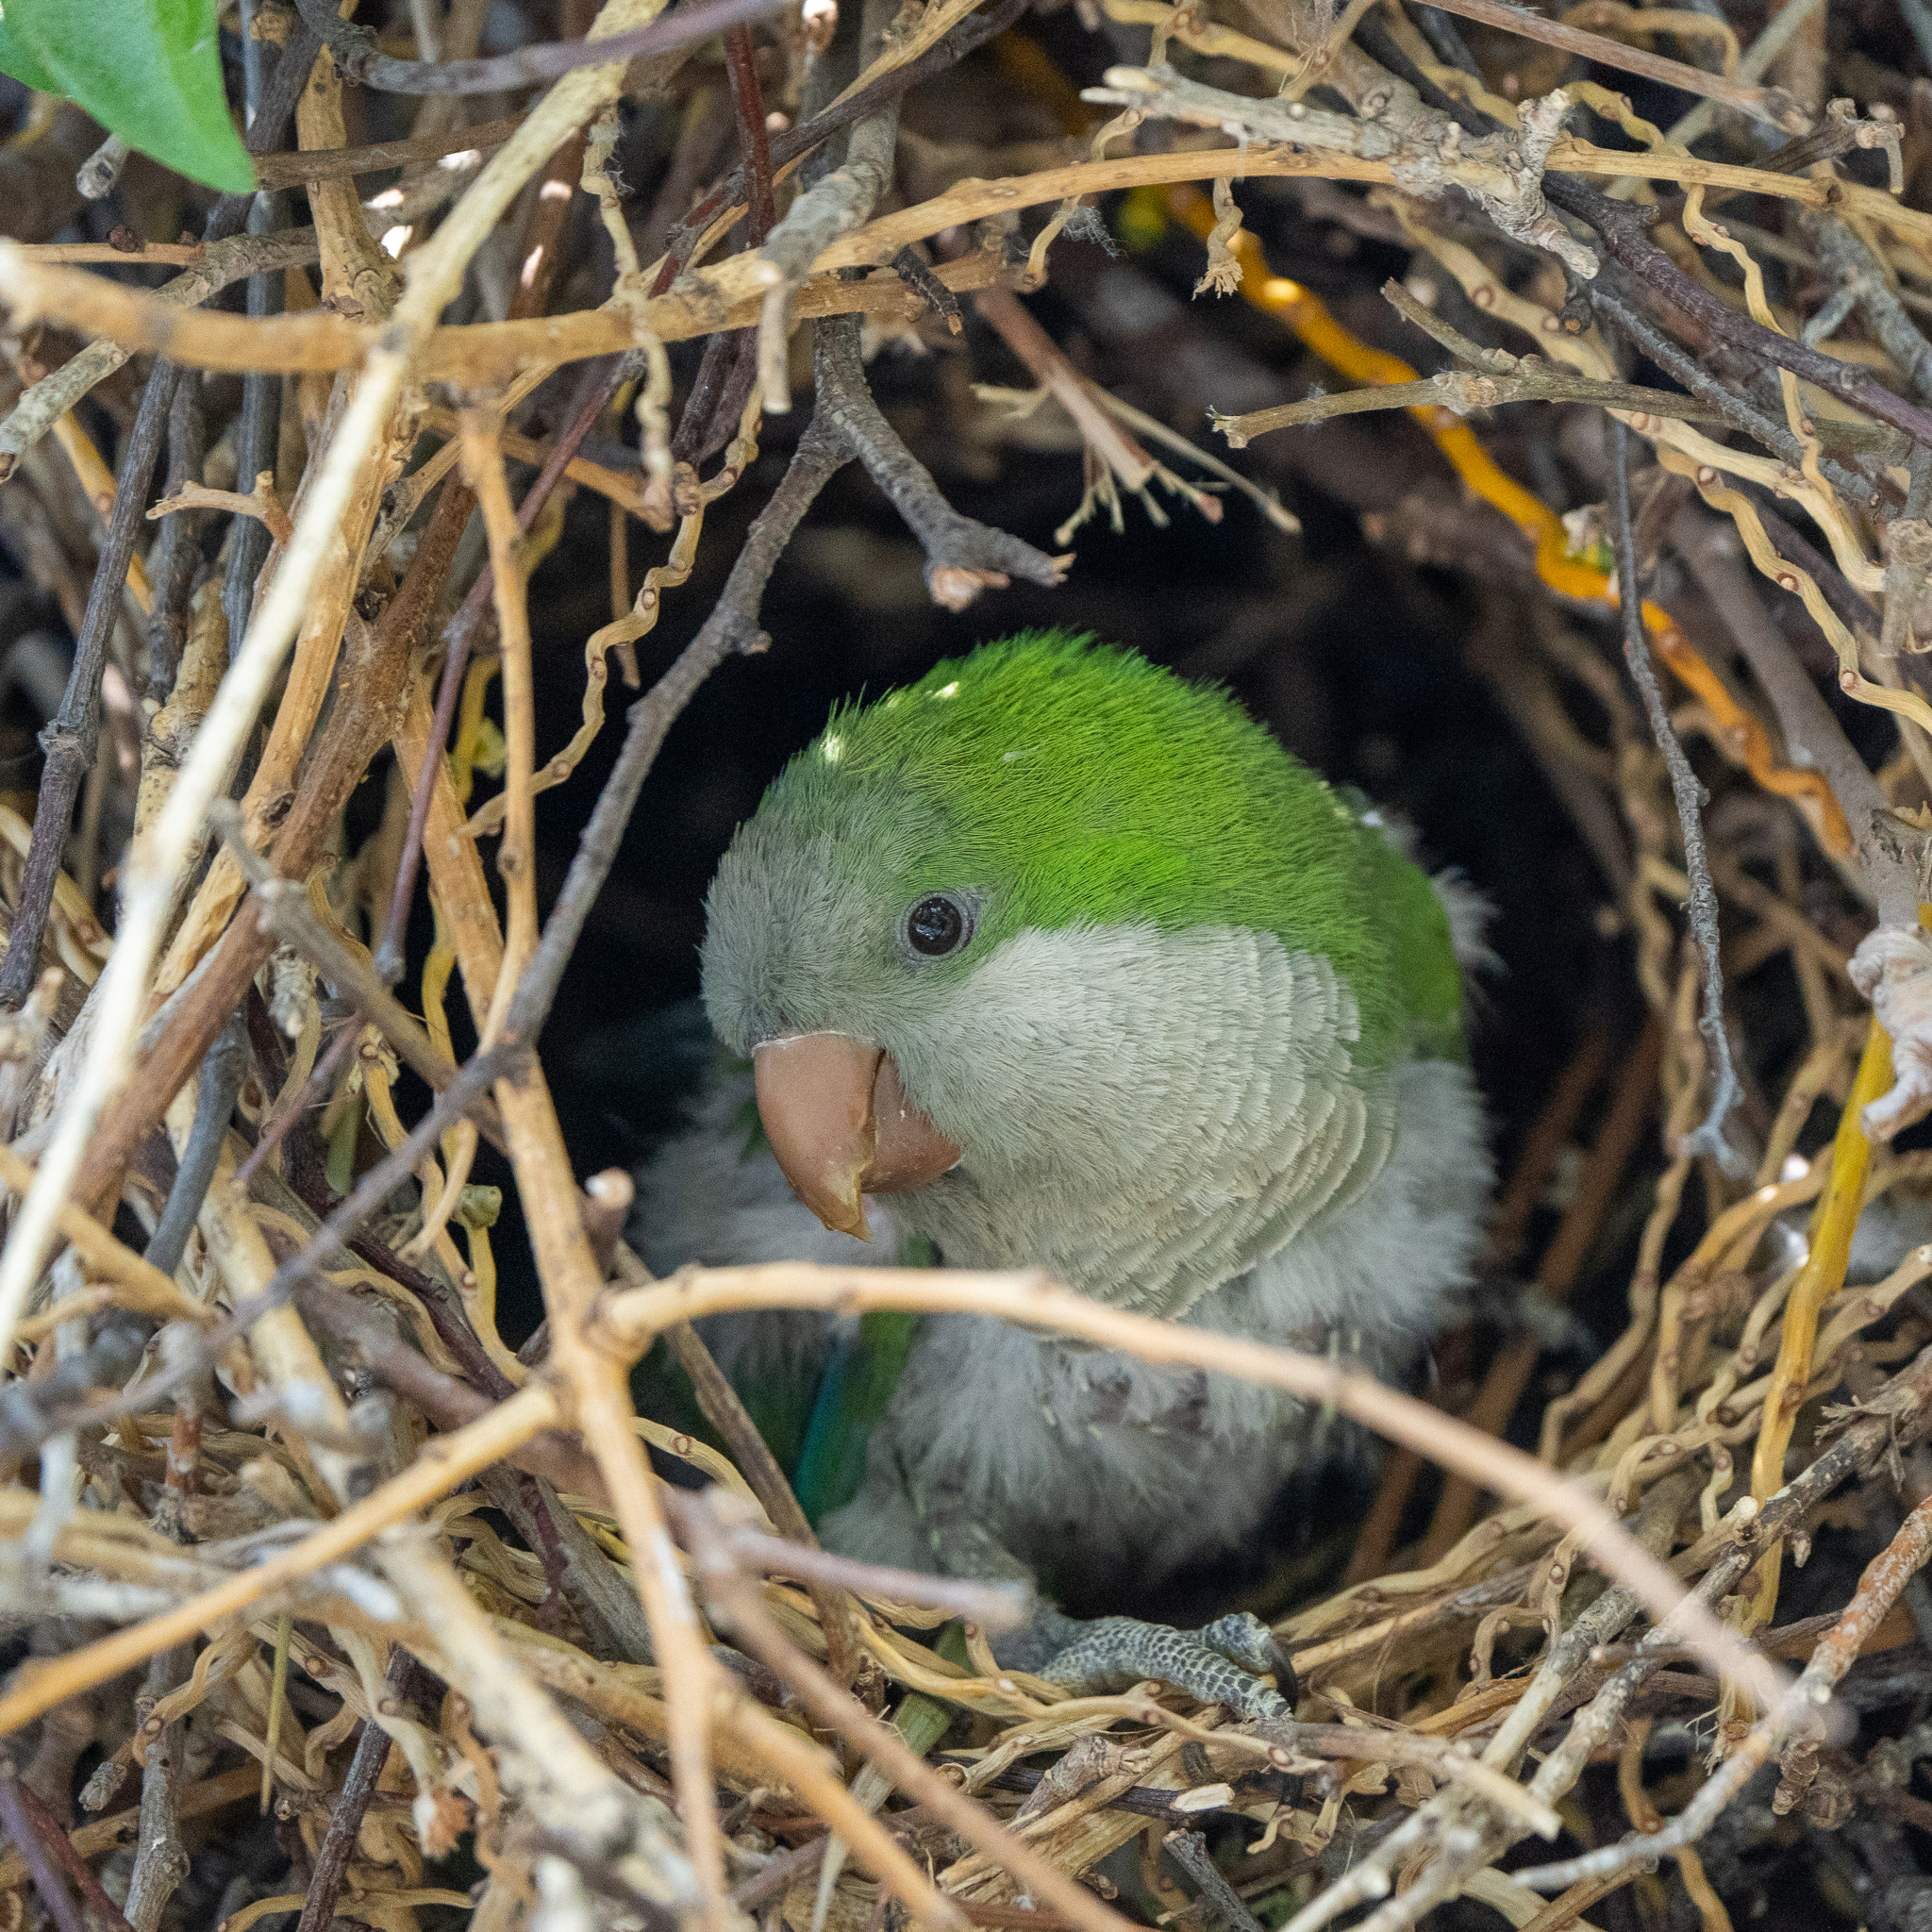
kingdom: Animalia
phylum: Chordata
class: Aves
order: Psittaciformes
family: Psittacidae
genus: Myiopsitta
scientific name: Myiopsitta monachus
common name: Monk parakeet
